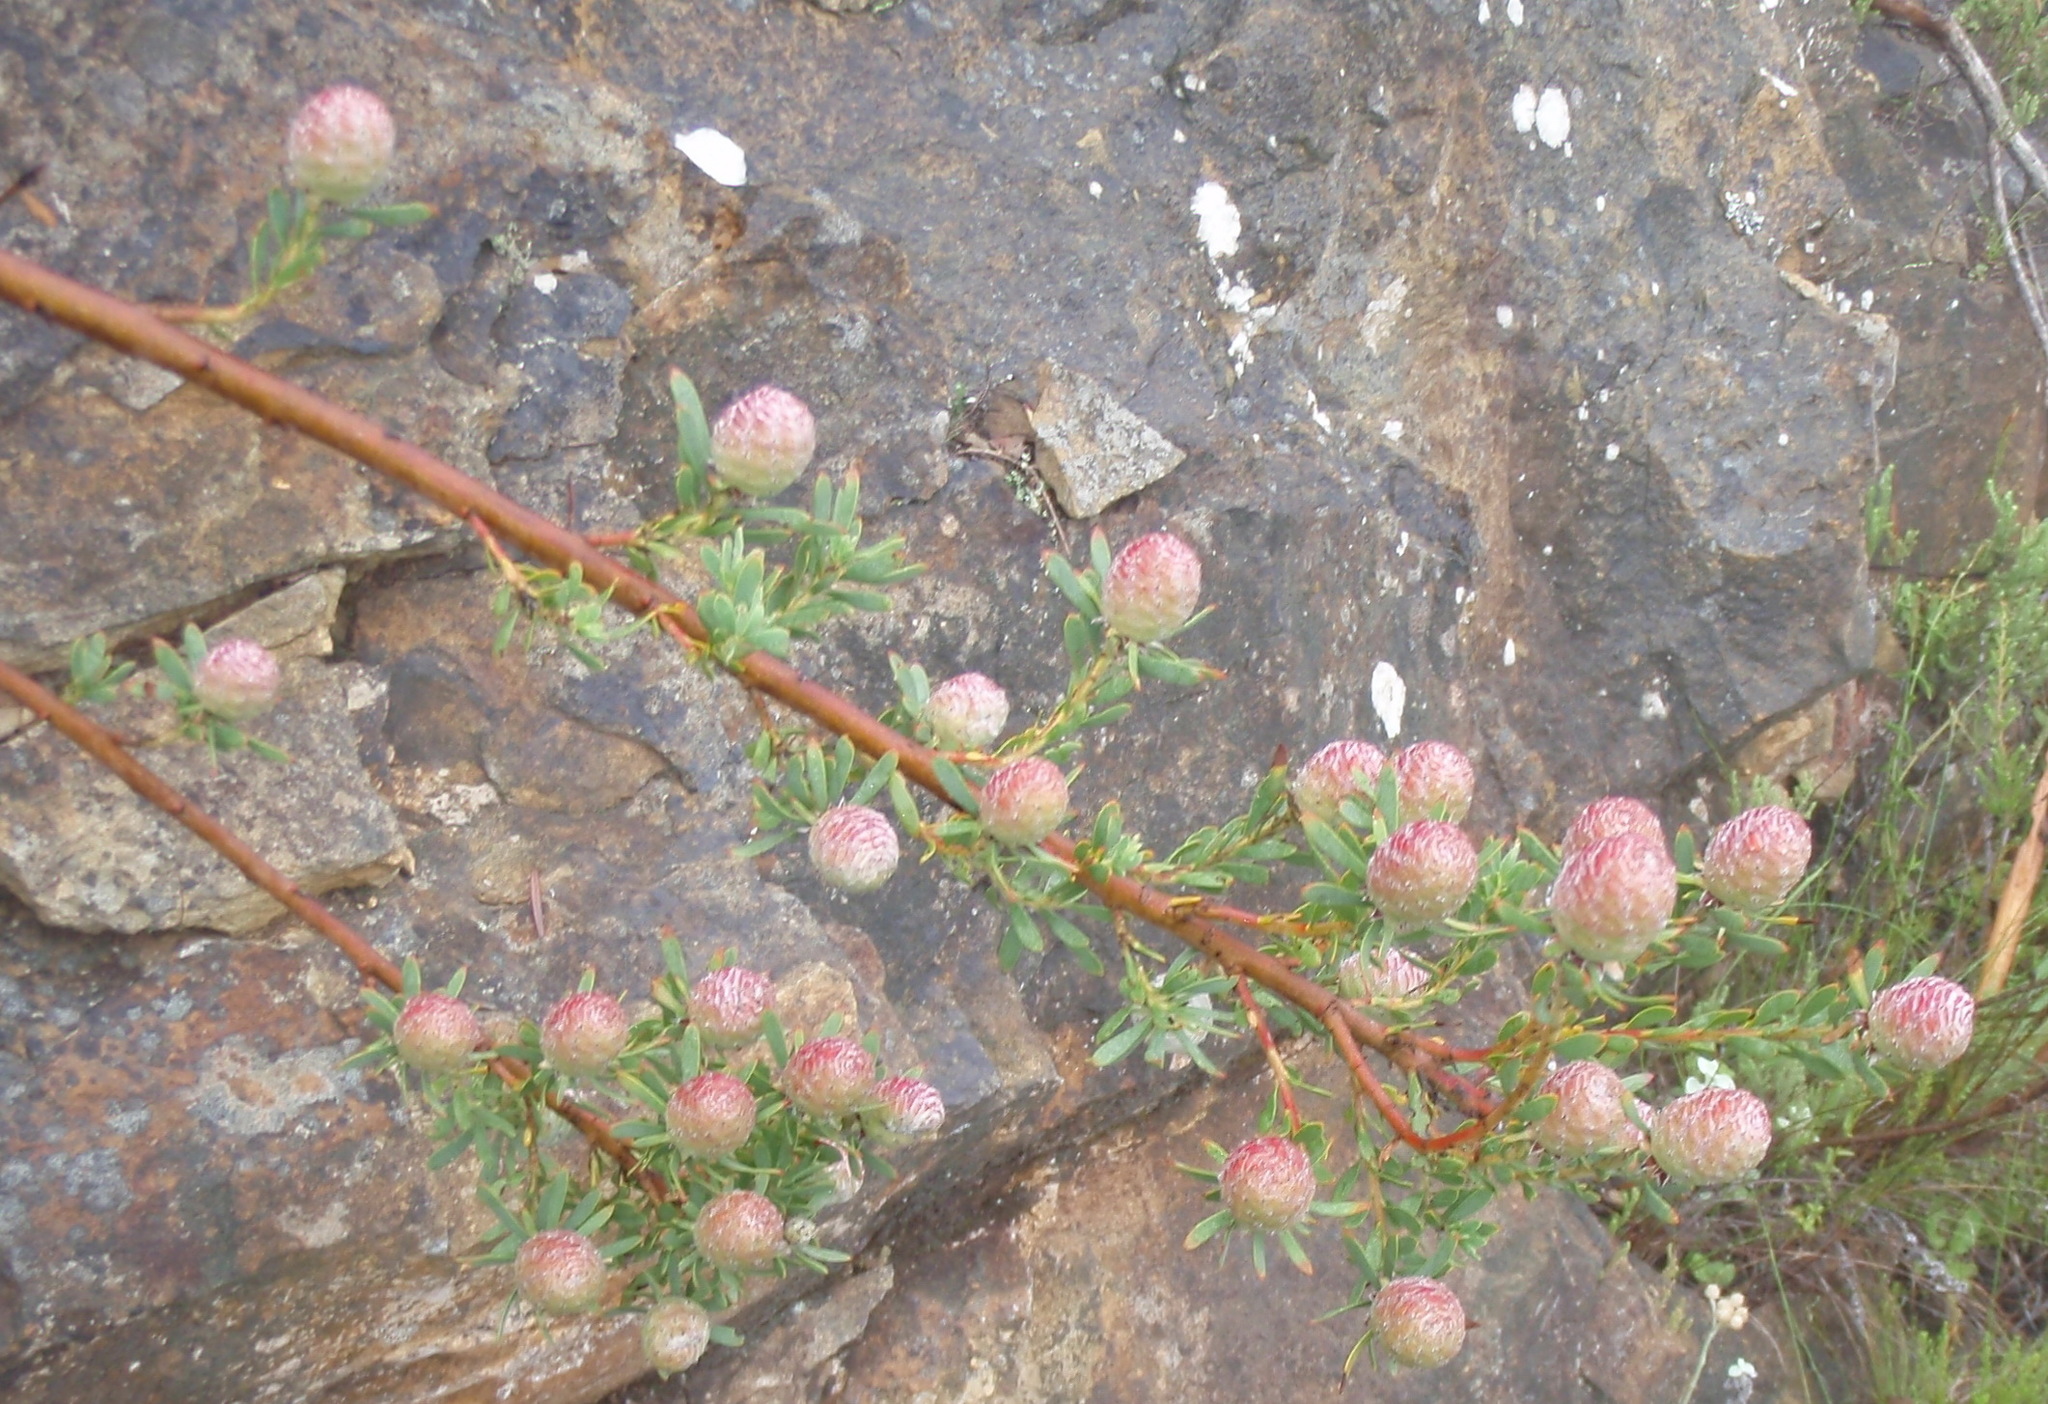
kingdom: Plantae
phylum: Tracheophyta
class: Magnoliopsida
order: Proteales
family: Proteaceae
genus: Leucadendron
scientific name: Leucadendron rourkei
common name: Uniondale conebush
